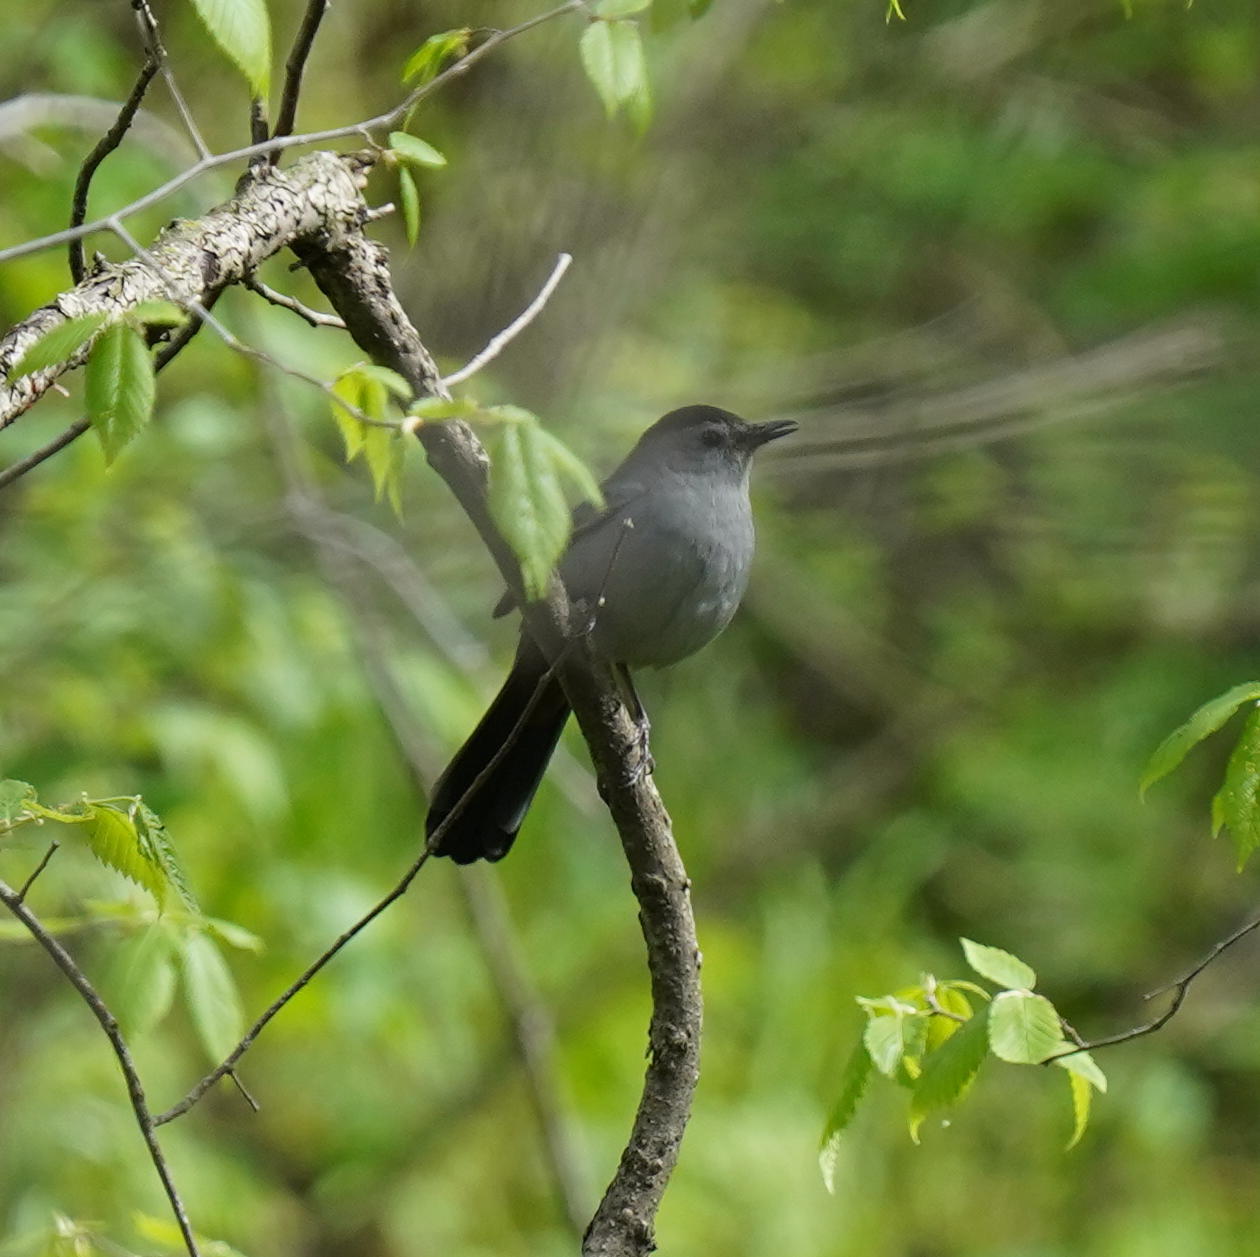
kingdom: Animalia
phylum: Chordata
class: Aves
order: Passeriformes
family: Mimidae
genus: Dumetella
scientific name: Dumetella carolinensis
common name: Gray catbird
